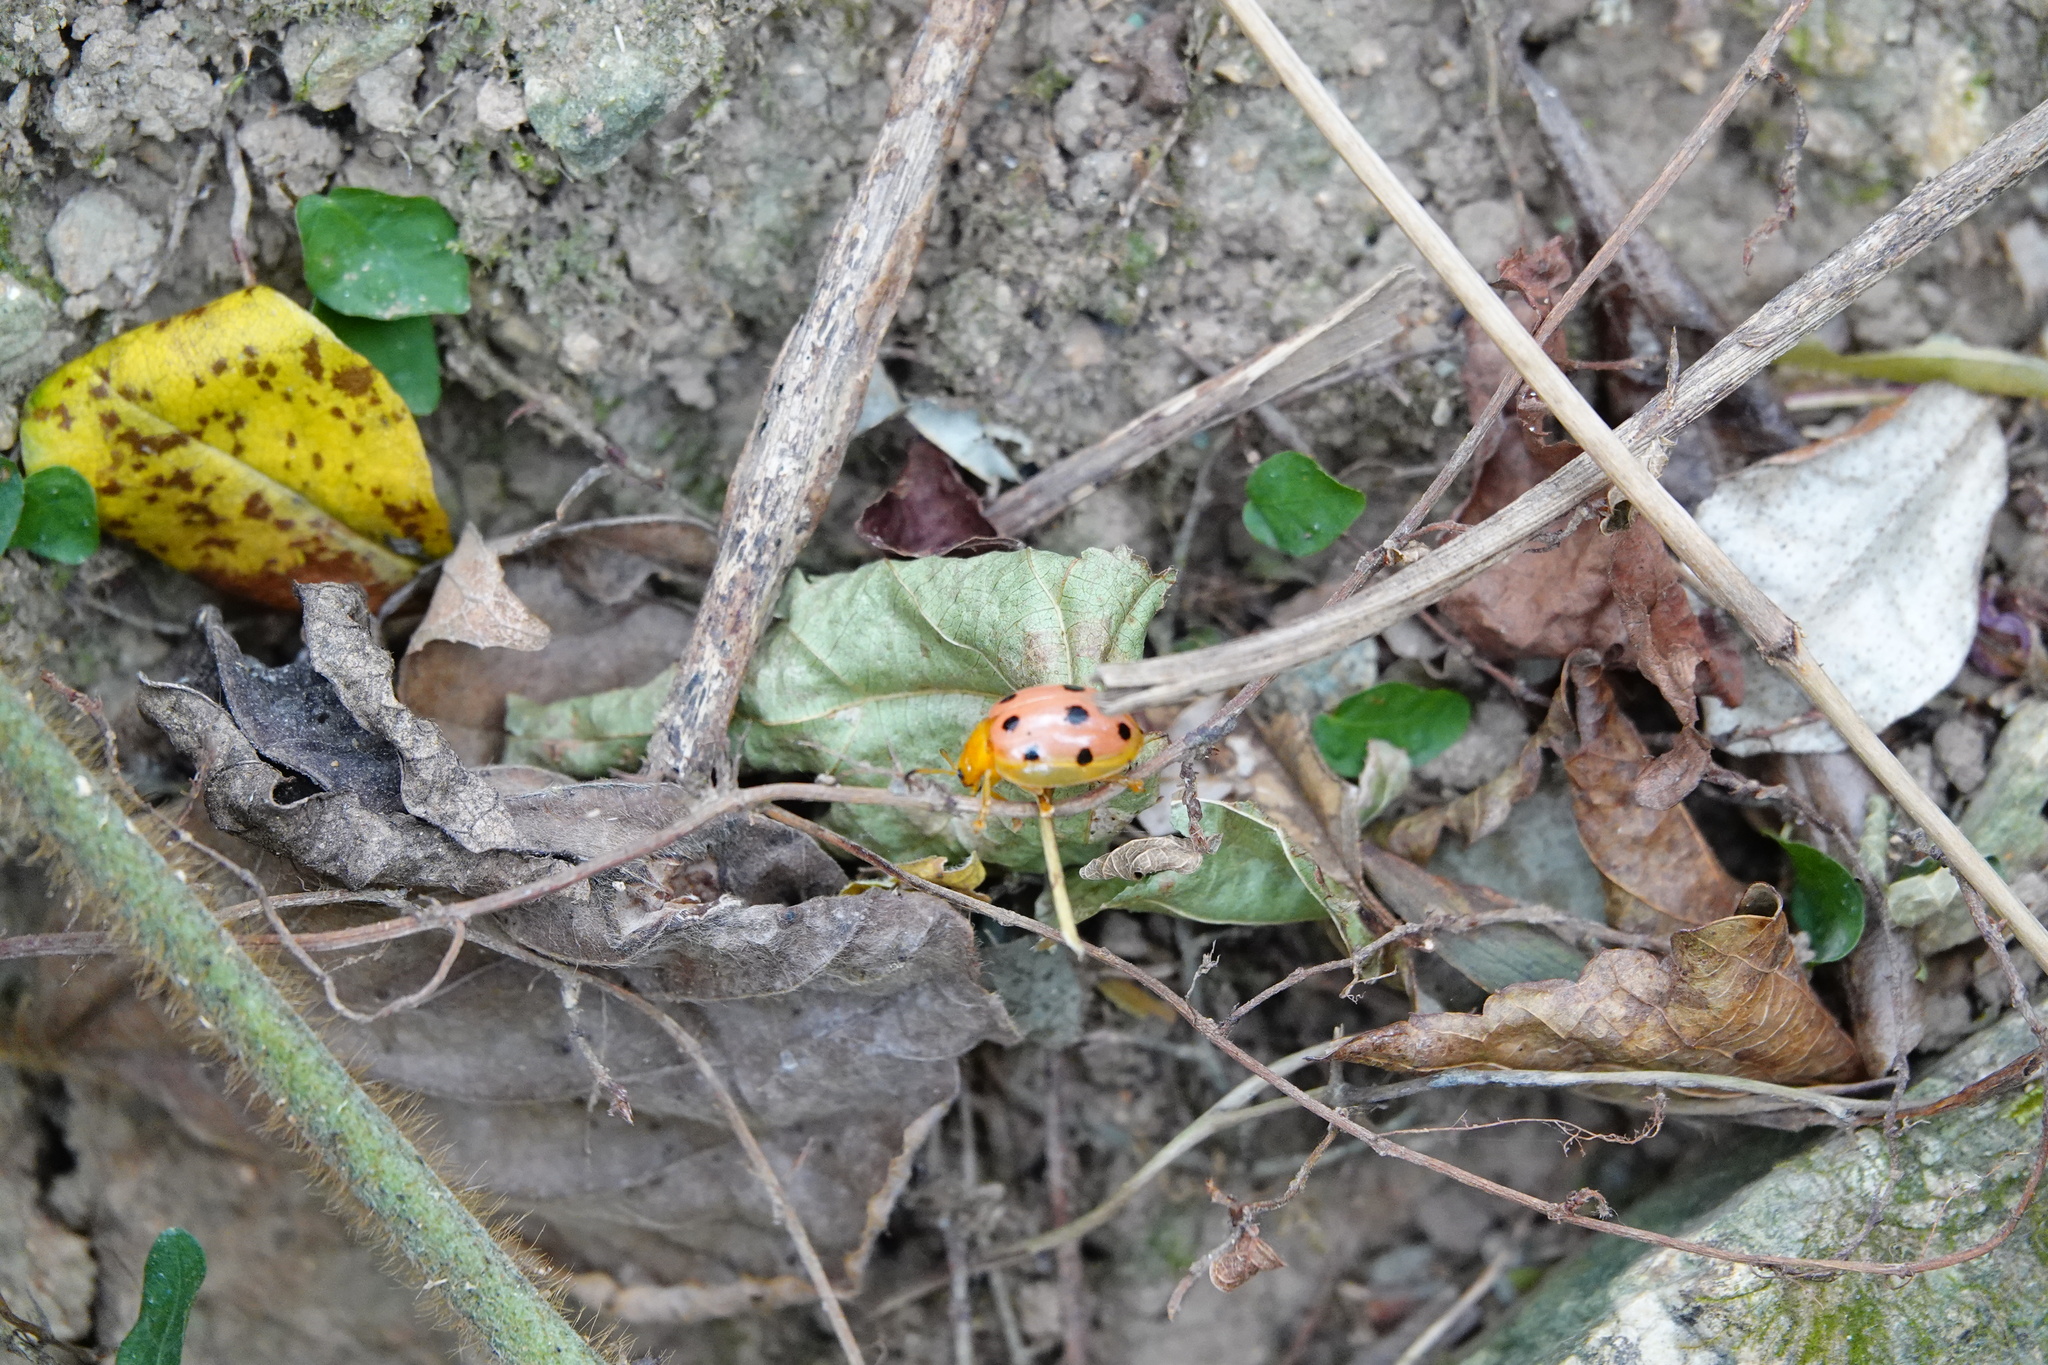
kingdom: Animalia
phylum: Arthropoda
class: Insecta
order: Coleoptera
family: Chrysomelidae
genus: Oides
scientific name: Oides decempunctata
